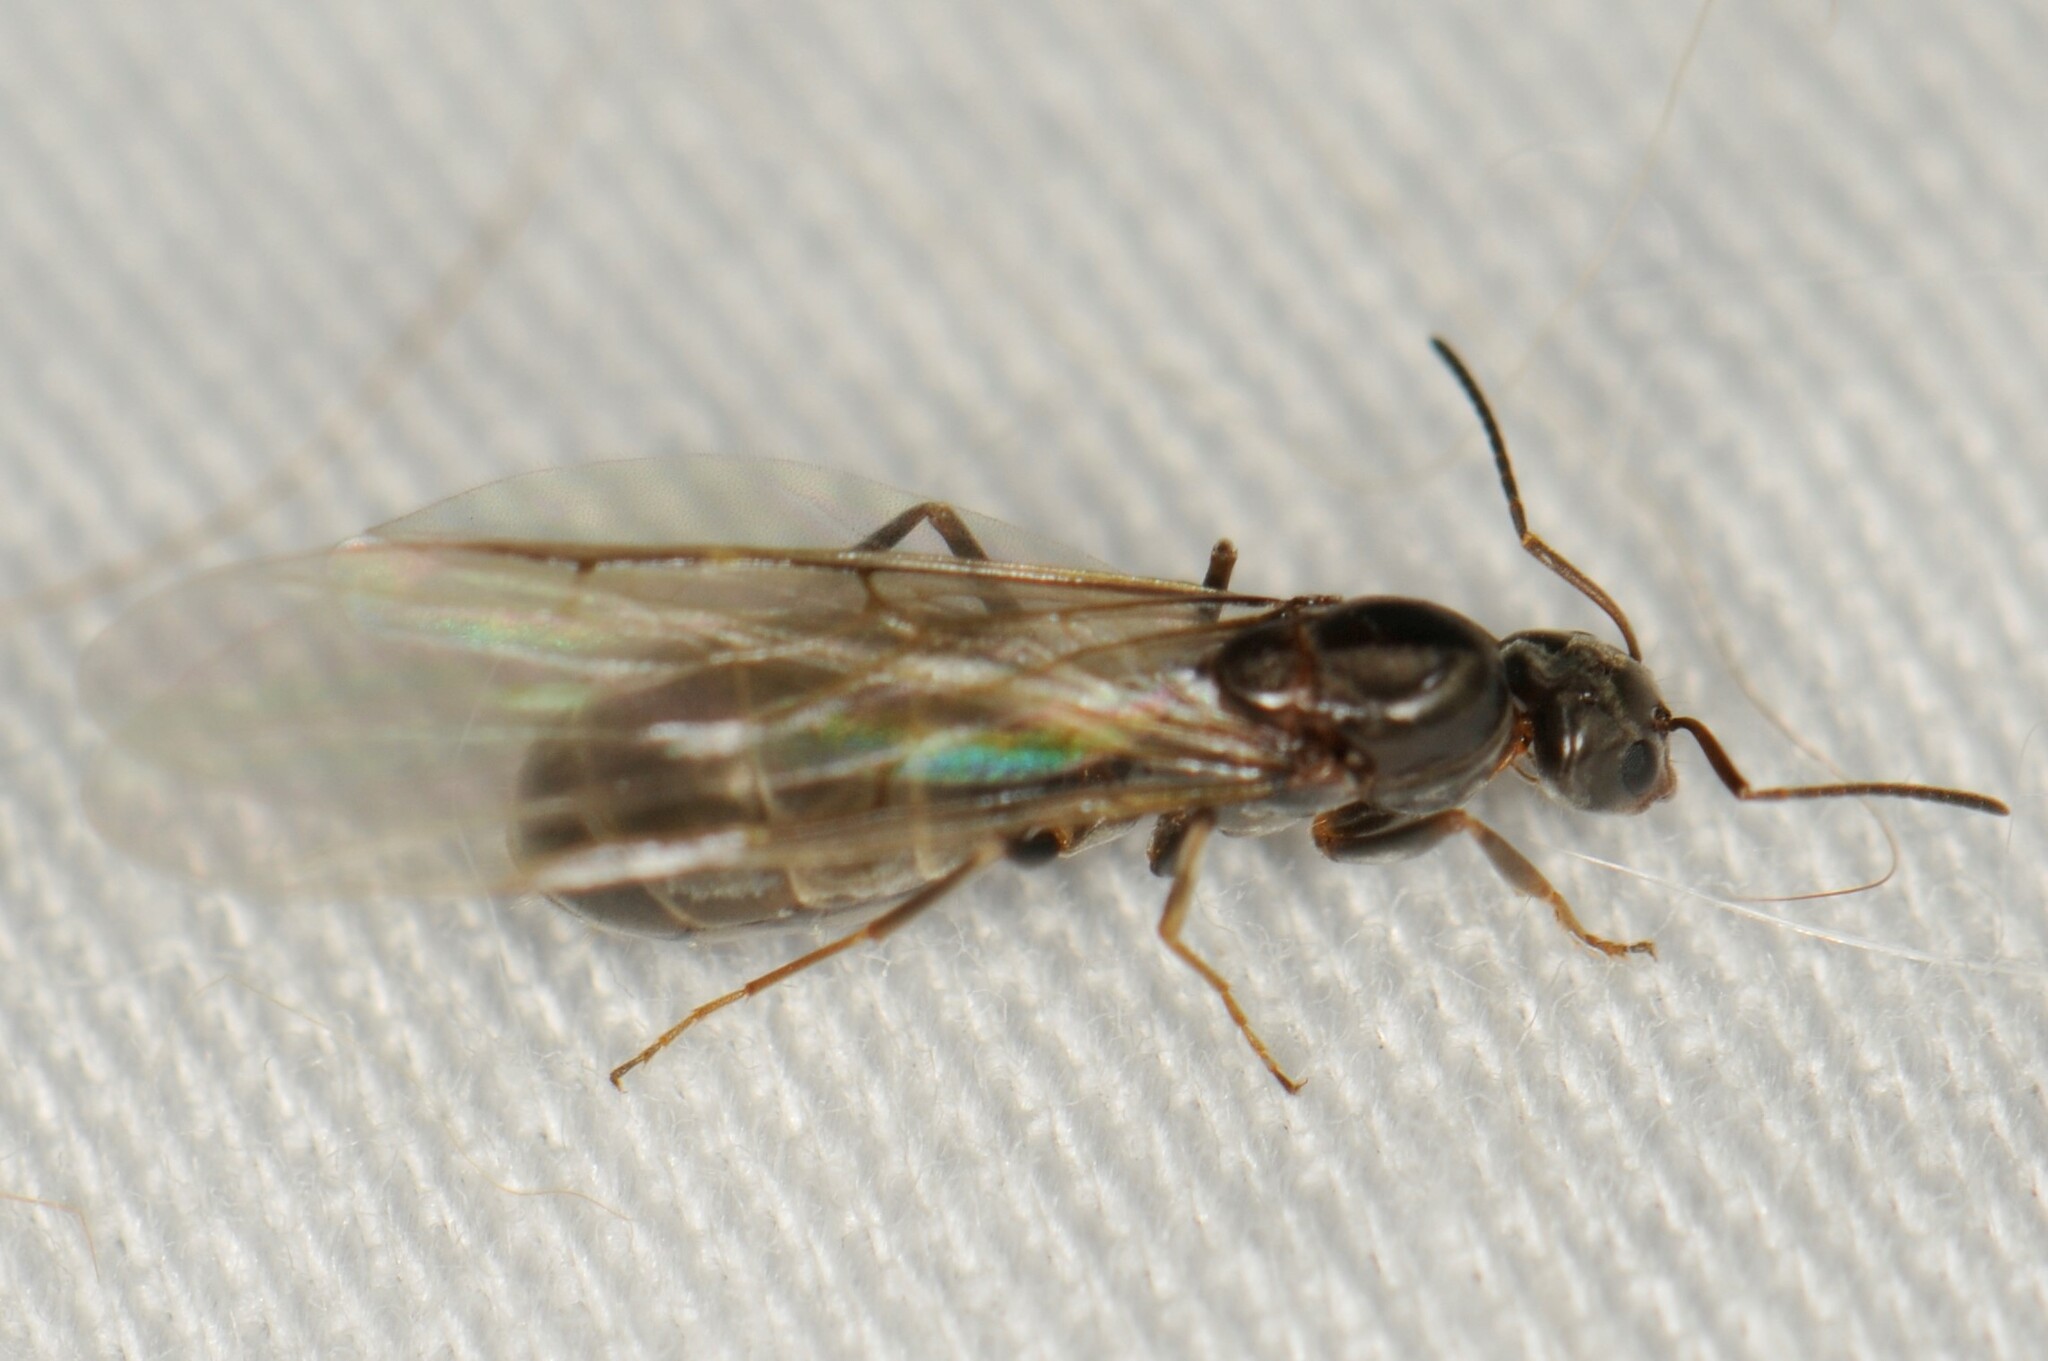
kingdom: Animalia
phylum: Arthropoda
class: Insecta
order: Hymenoptera
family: Formicidae
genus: Dorymyrmex
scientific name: Dorymyrmex
